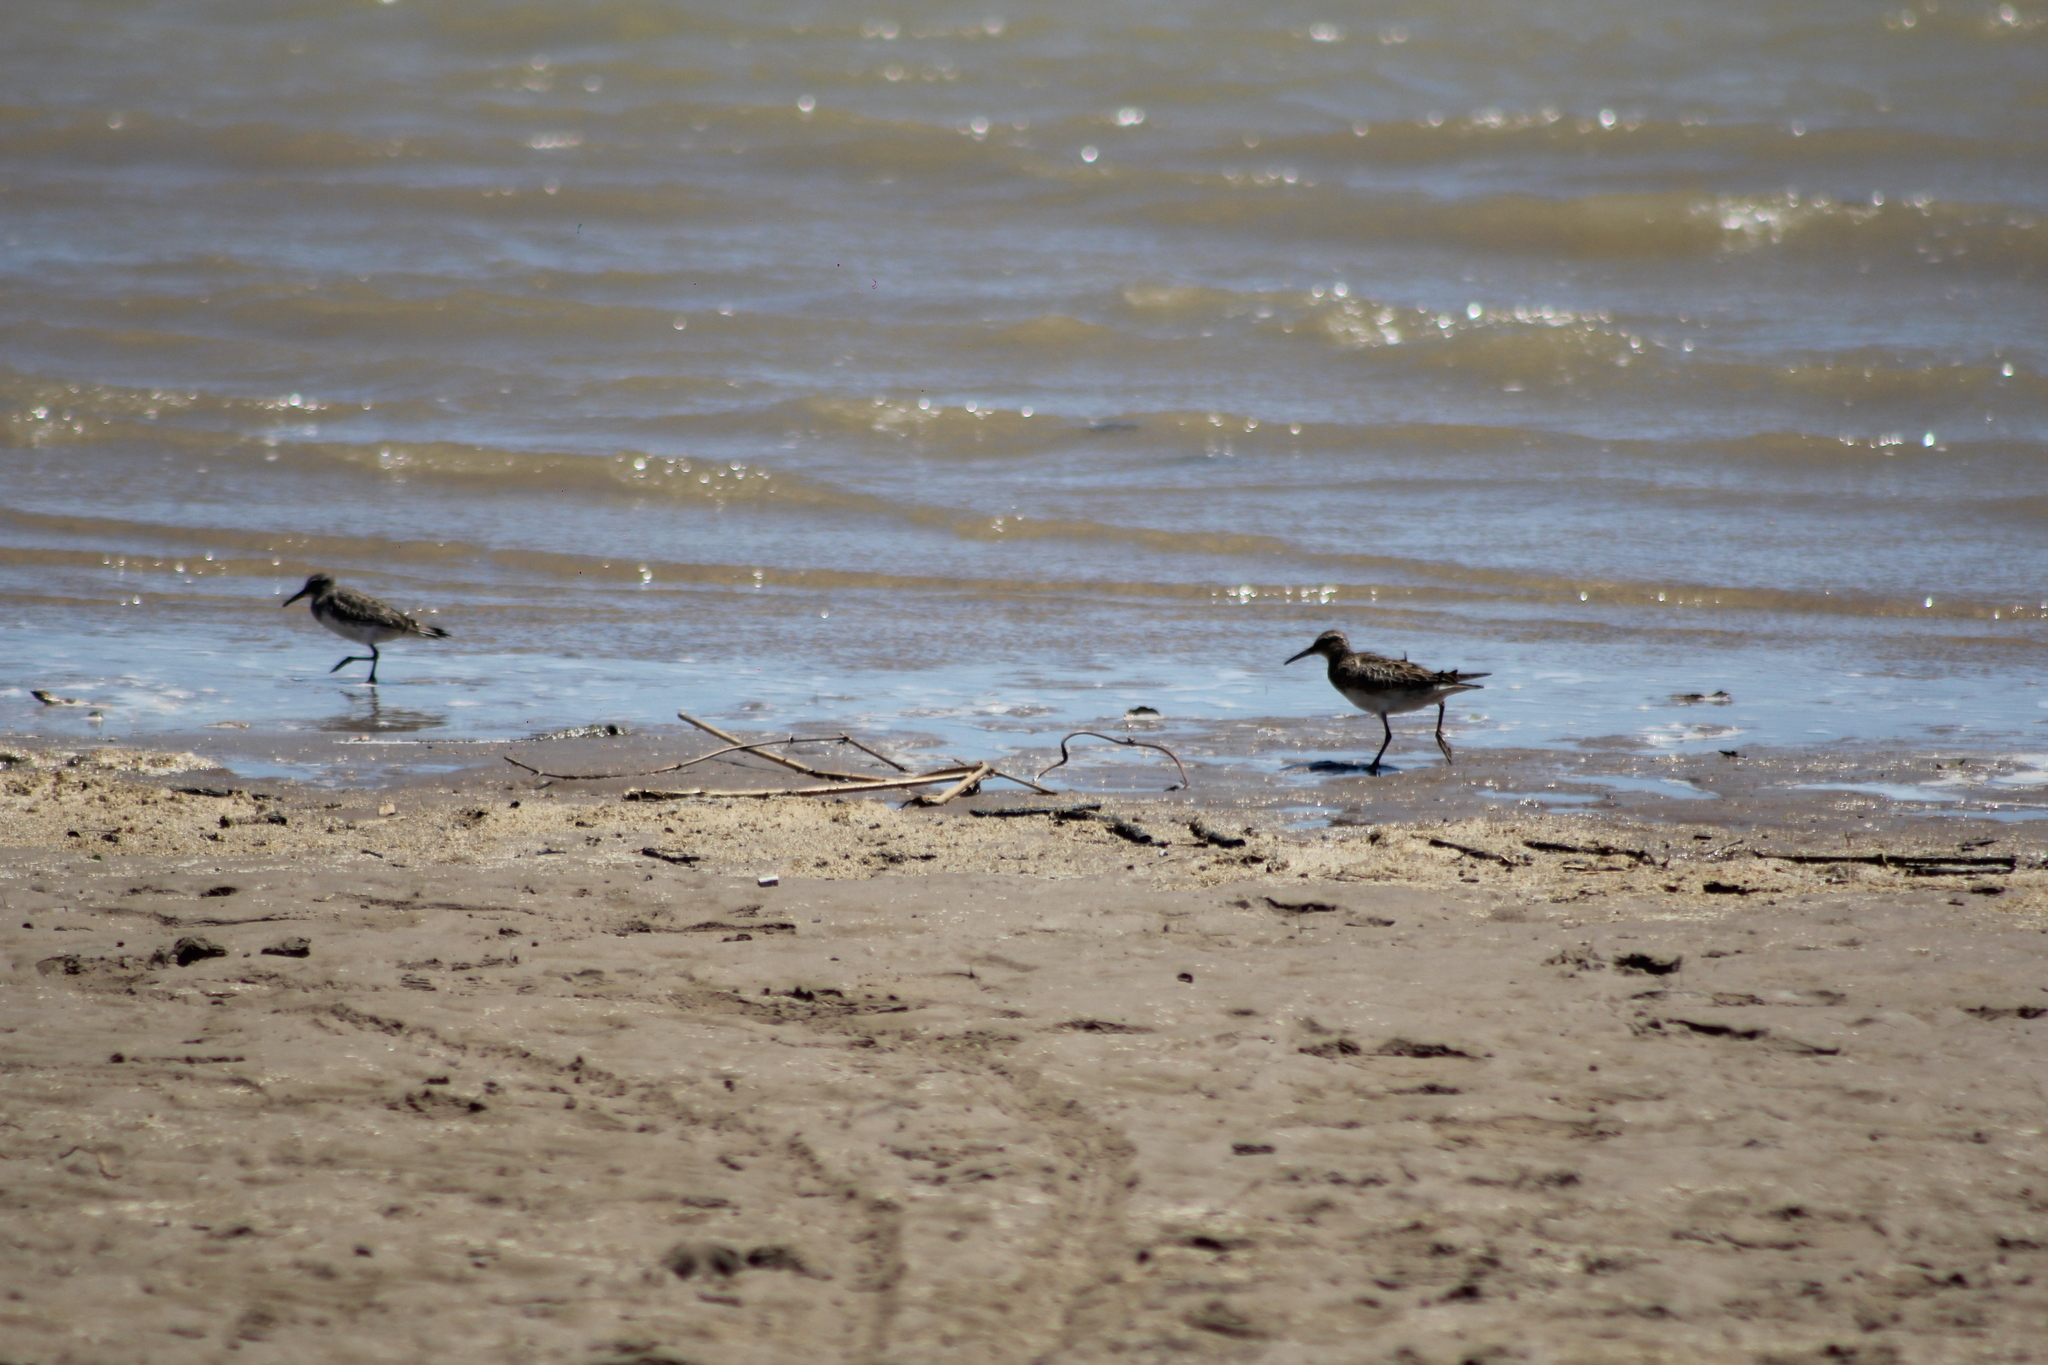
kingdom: Animalia
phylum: Chordata
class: Aves
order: Charadriiformes
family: Scolopacidae
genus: Calidris
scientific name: Calidris melanotos
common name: Pectoral sandpiper
